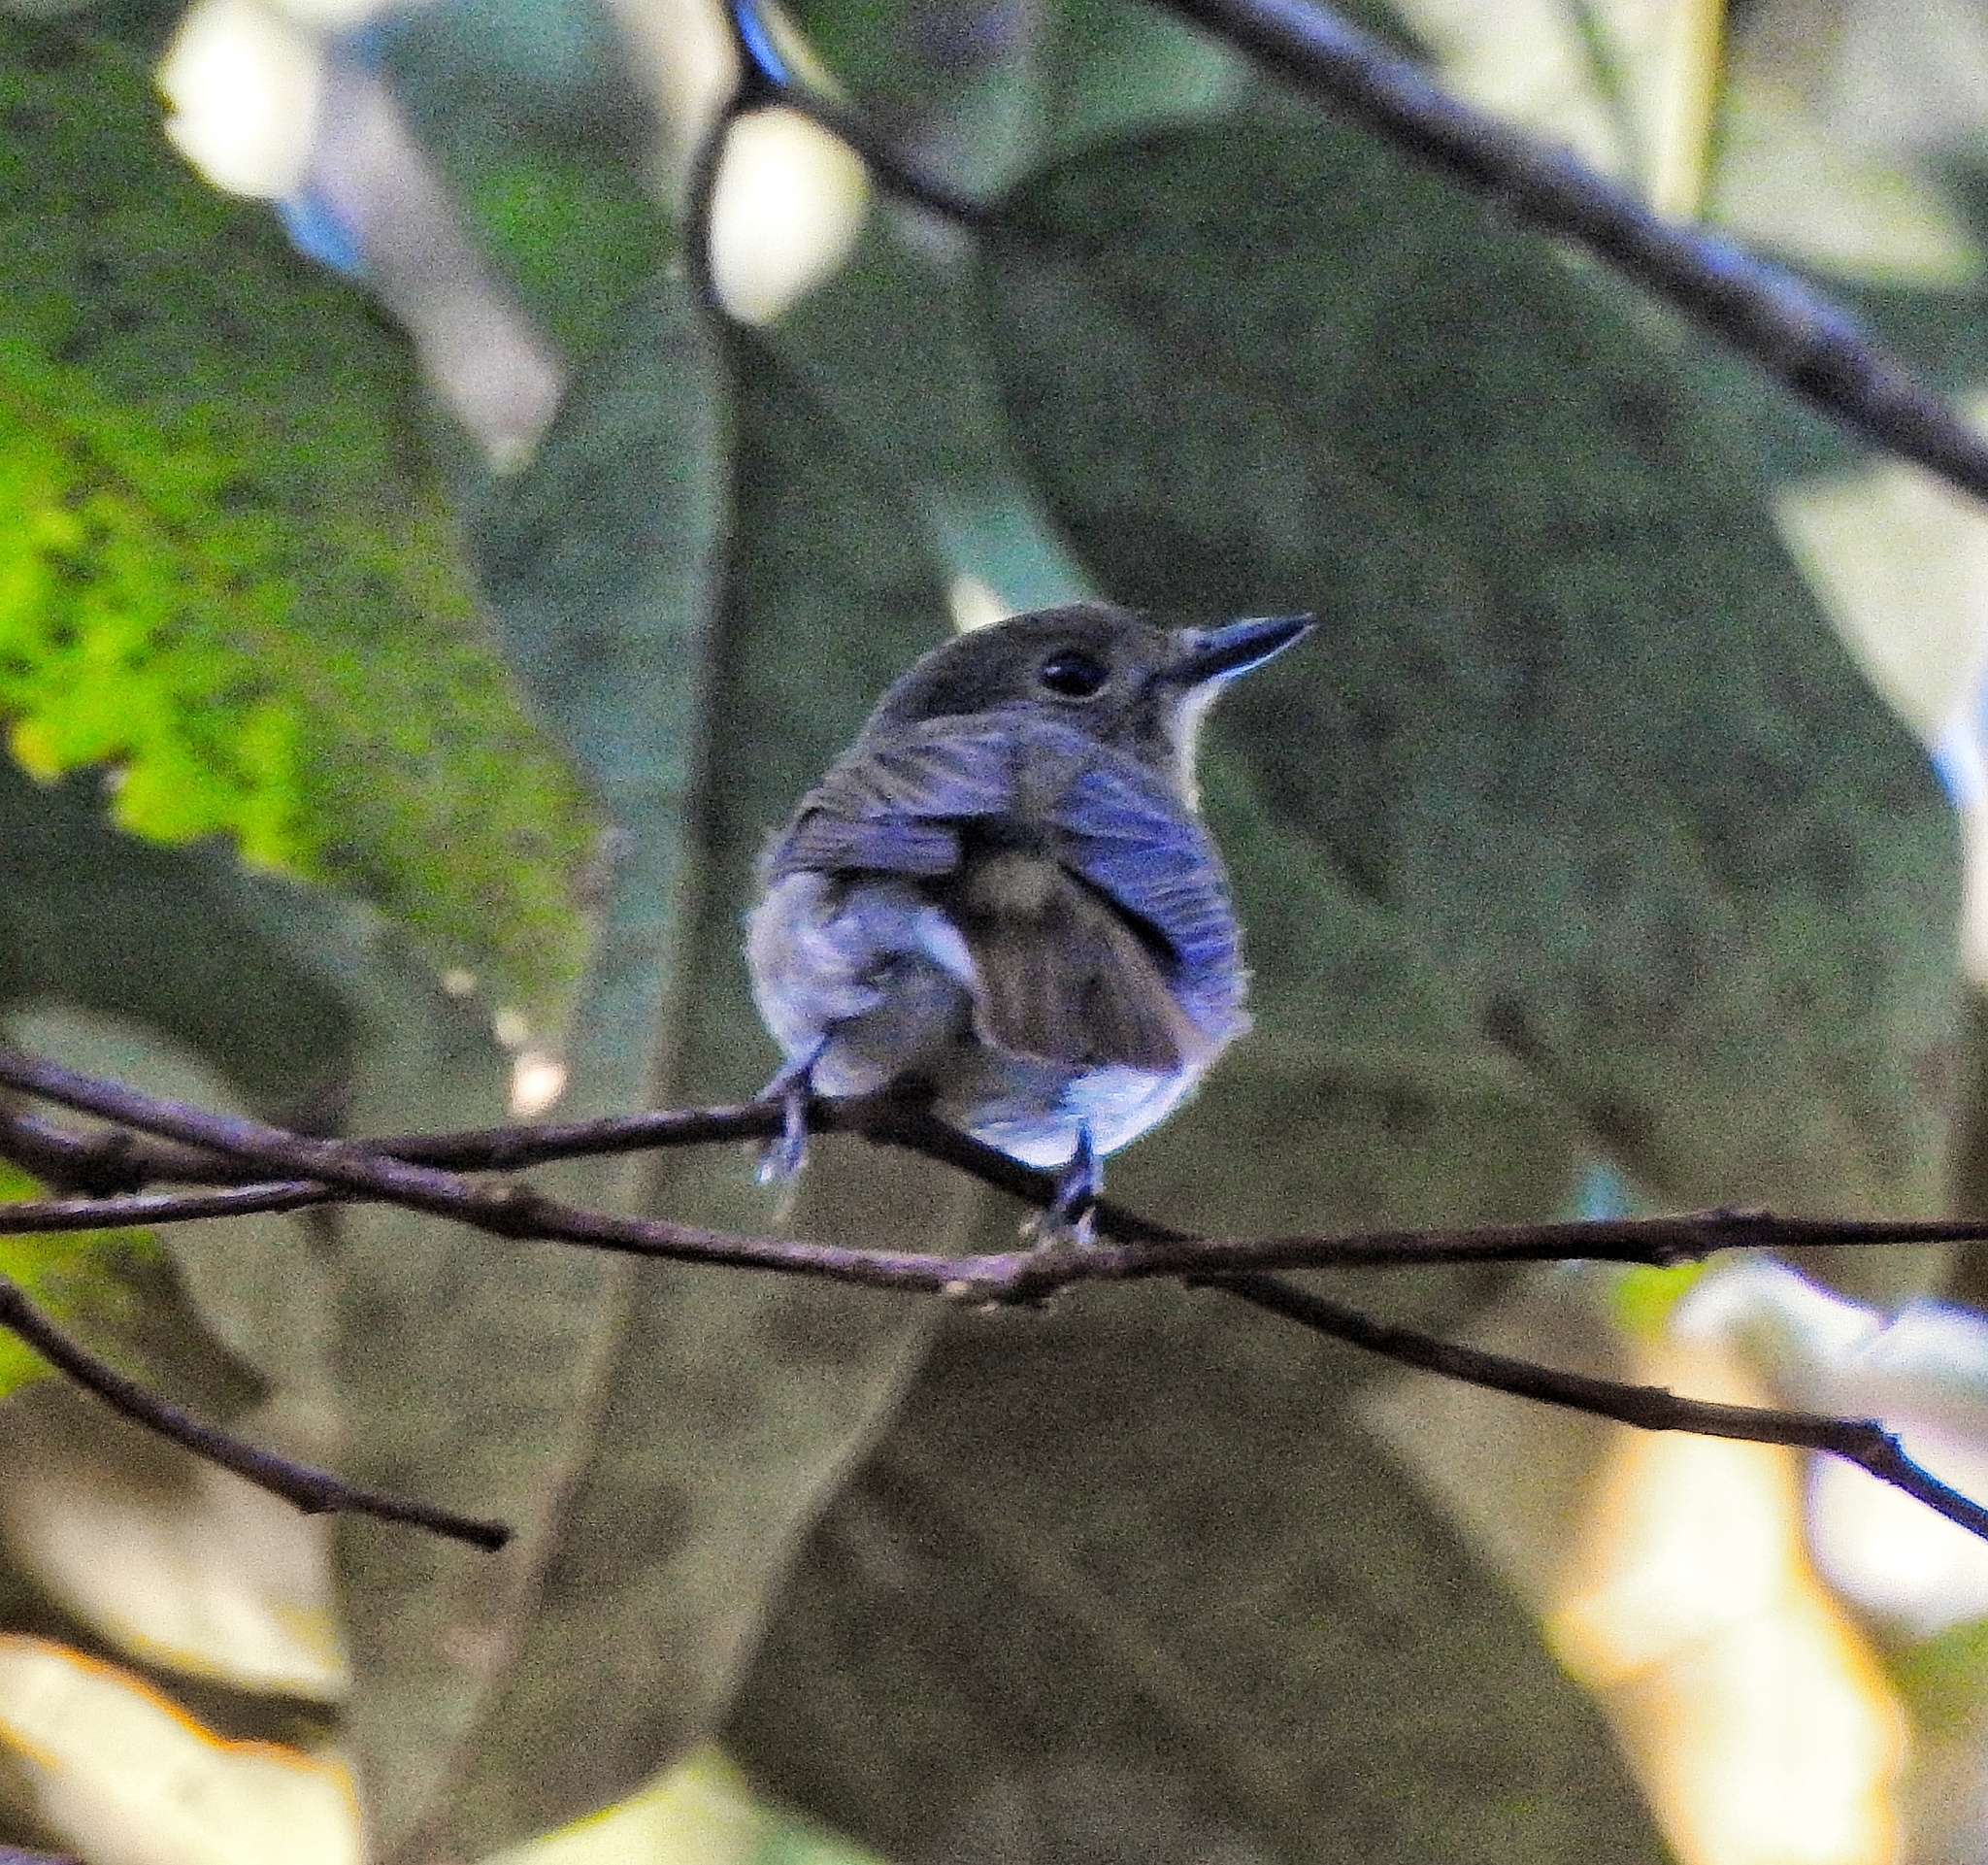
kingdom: Animalia
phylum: Chordata
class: Aves
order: Passeriformes
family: Muscicapidae
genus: Cyornis
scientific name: Cyornis rubeculoides
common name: Blue-throated blue flycatcher
